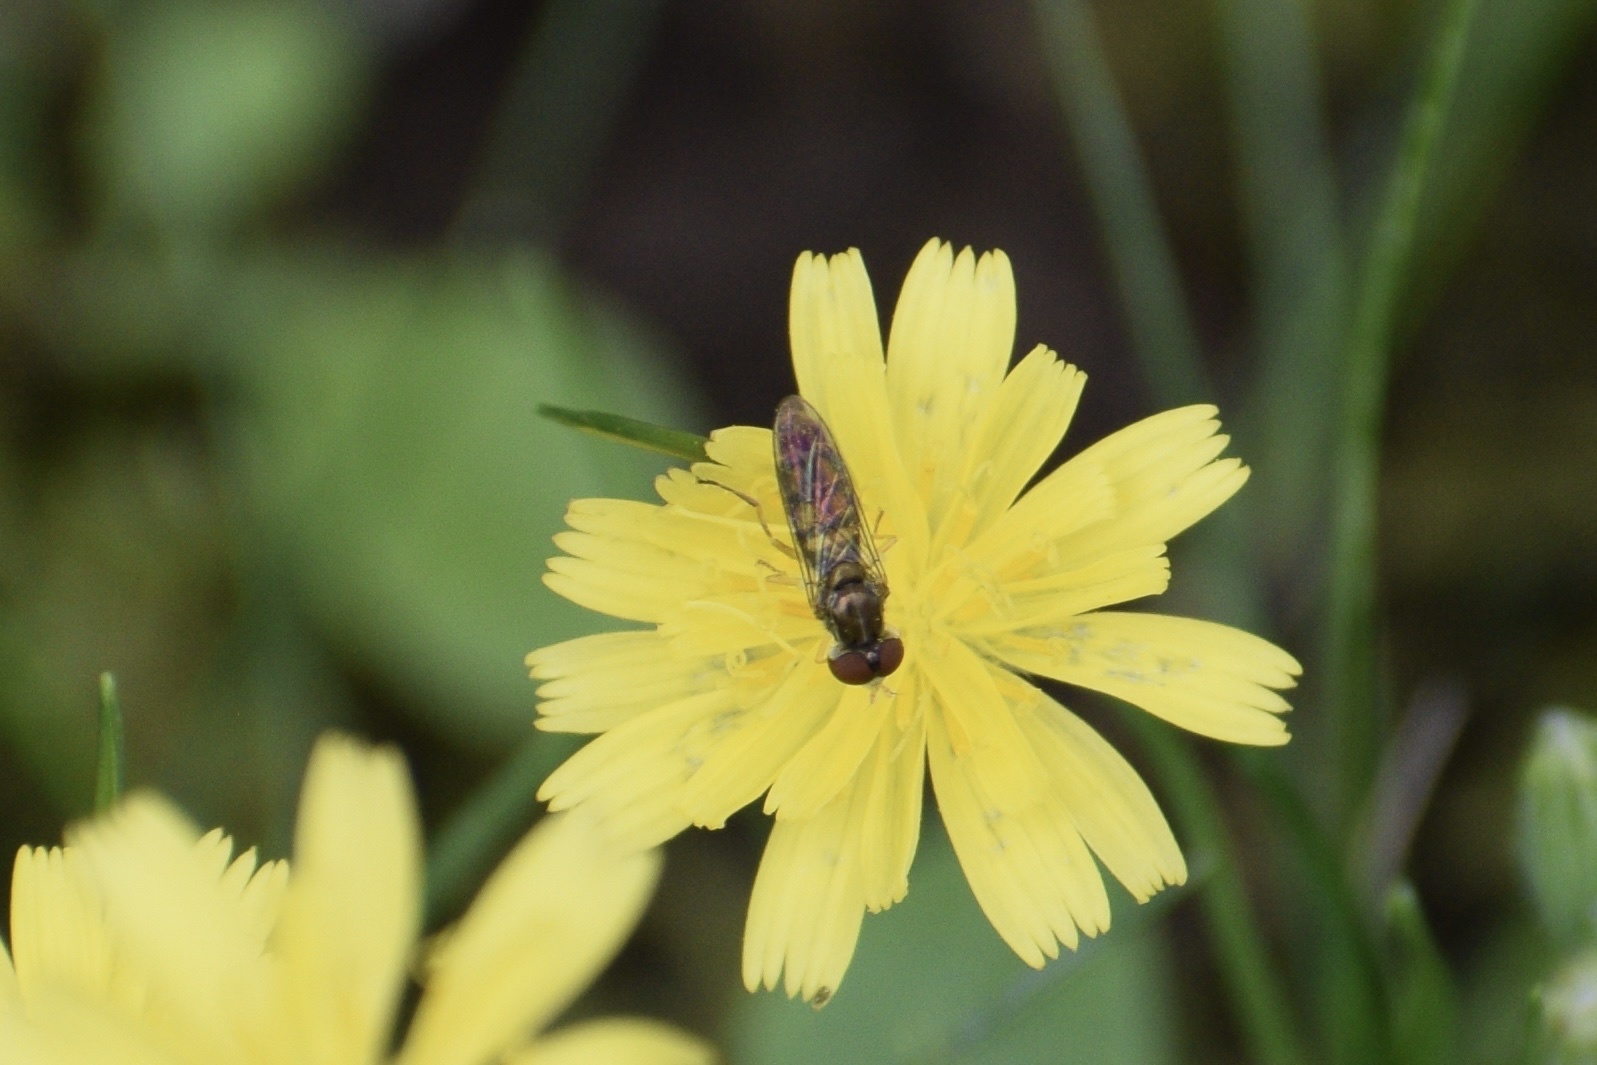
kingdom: Animalia
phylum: Arthropoda
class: Insecta
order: Diptera
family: Syrphidae
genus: Toxomerus
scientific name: Toxomerus marginatus
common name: Syrphid fly
